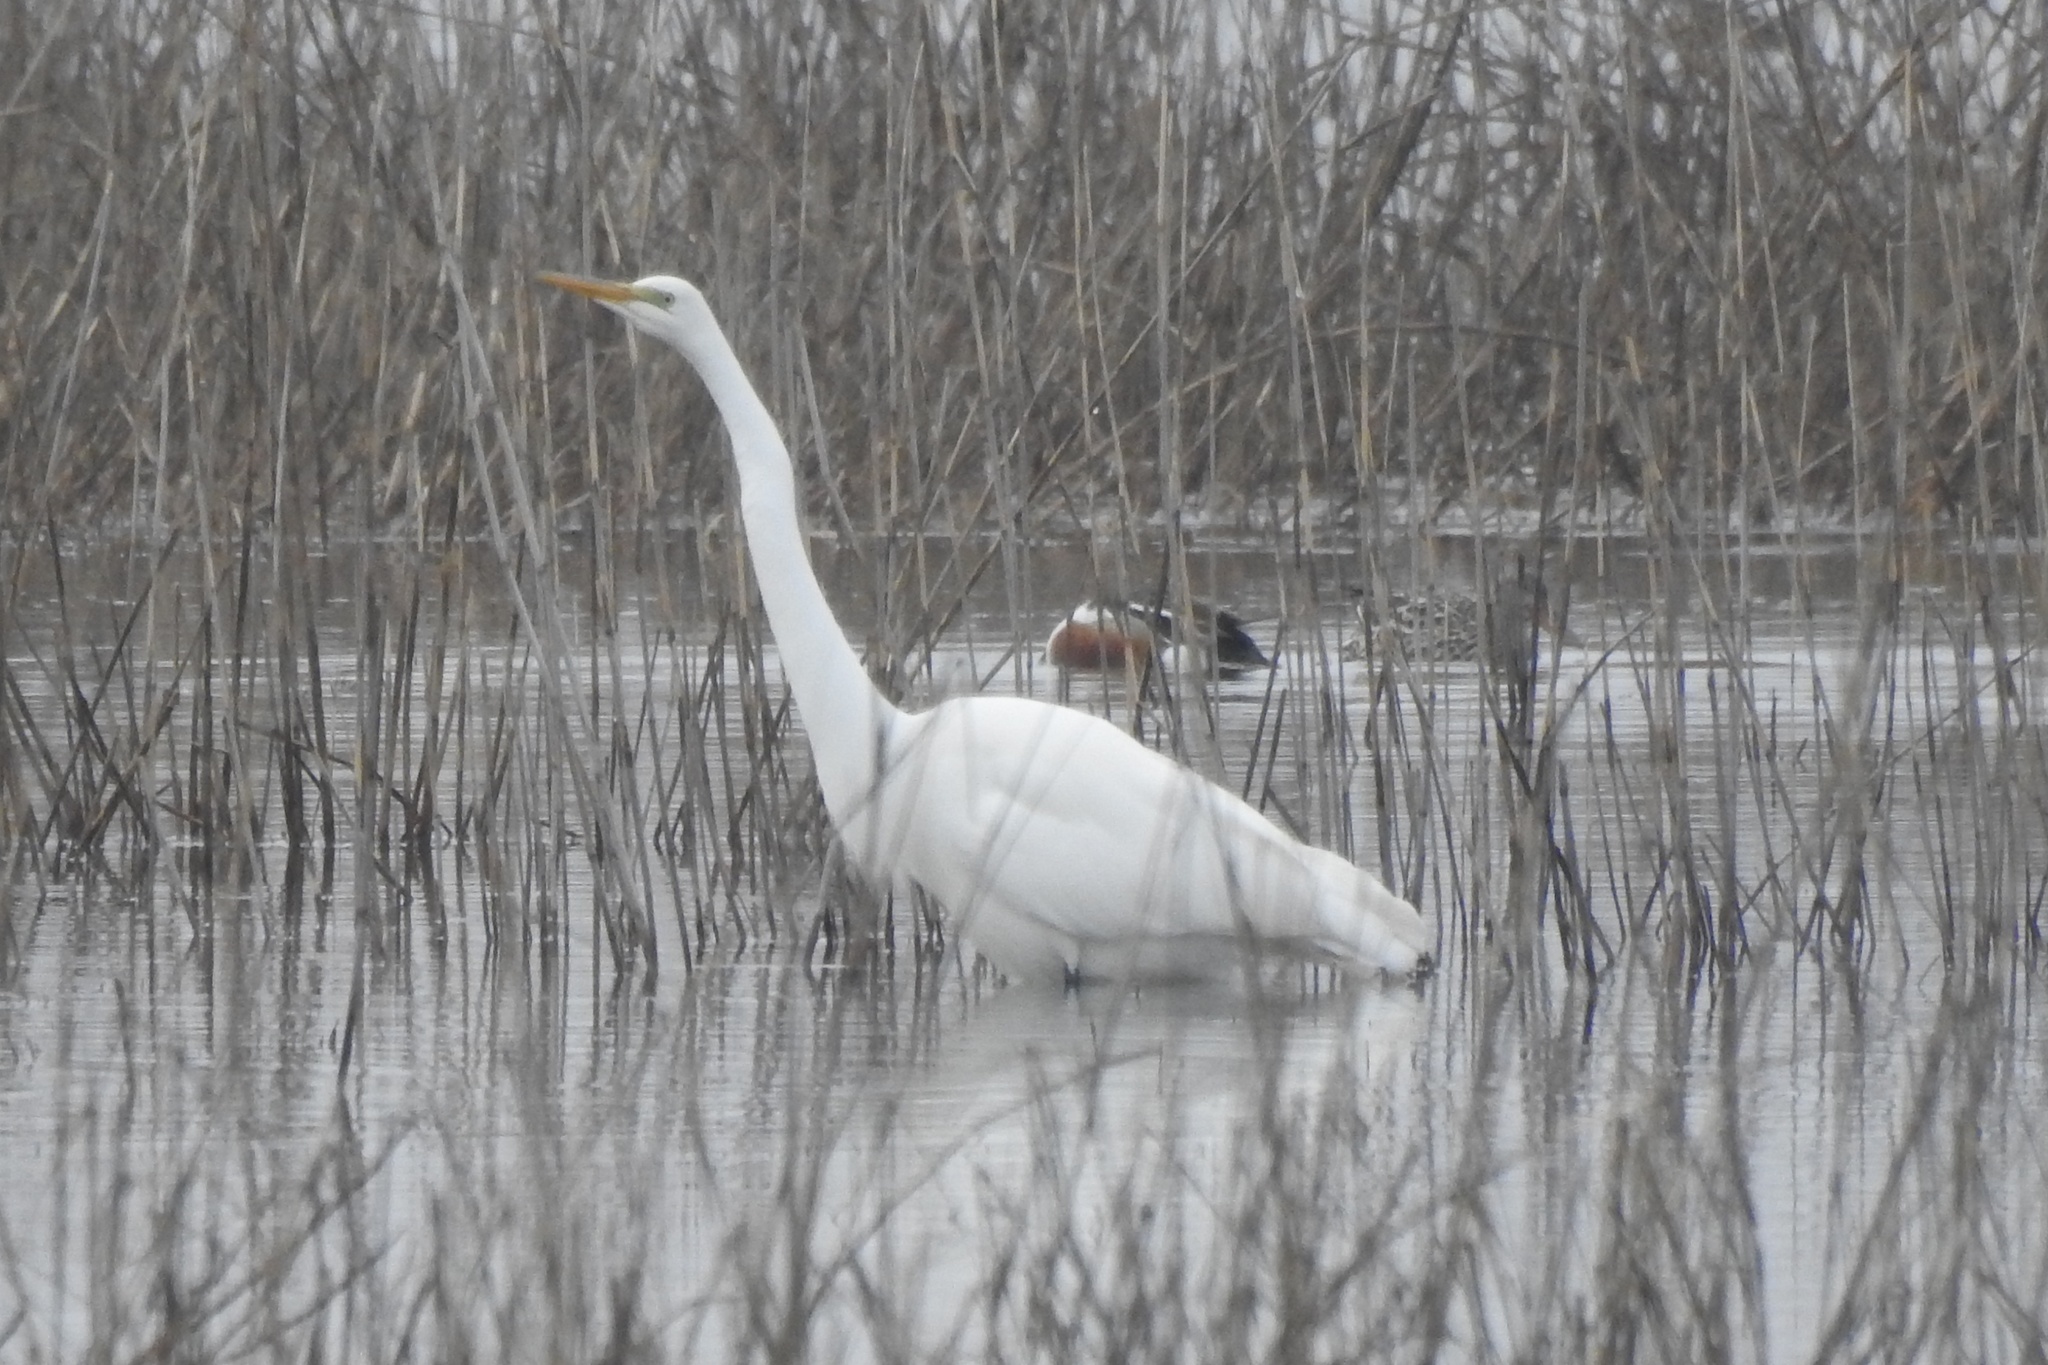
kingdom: Animalia
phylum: Chordata
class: Aves
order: Pelecaniformes
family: Ardeidae
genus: Ardea
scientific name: Ardea alba
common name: Great egret
